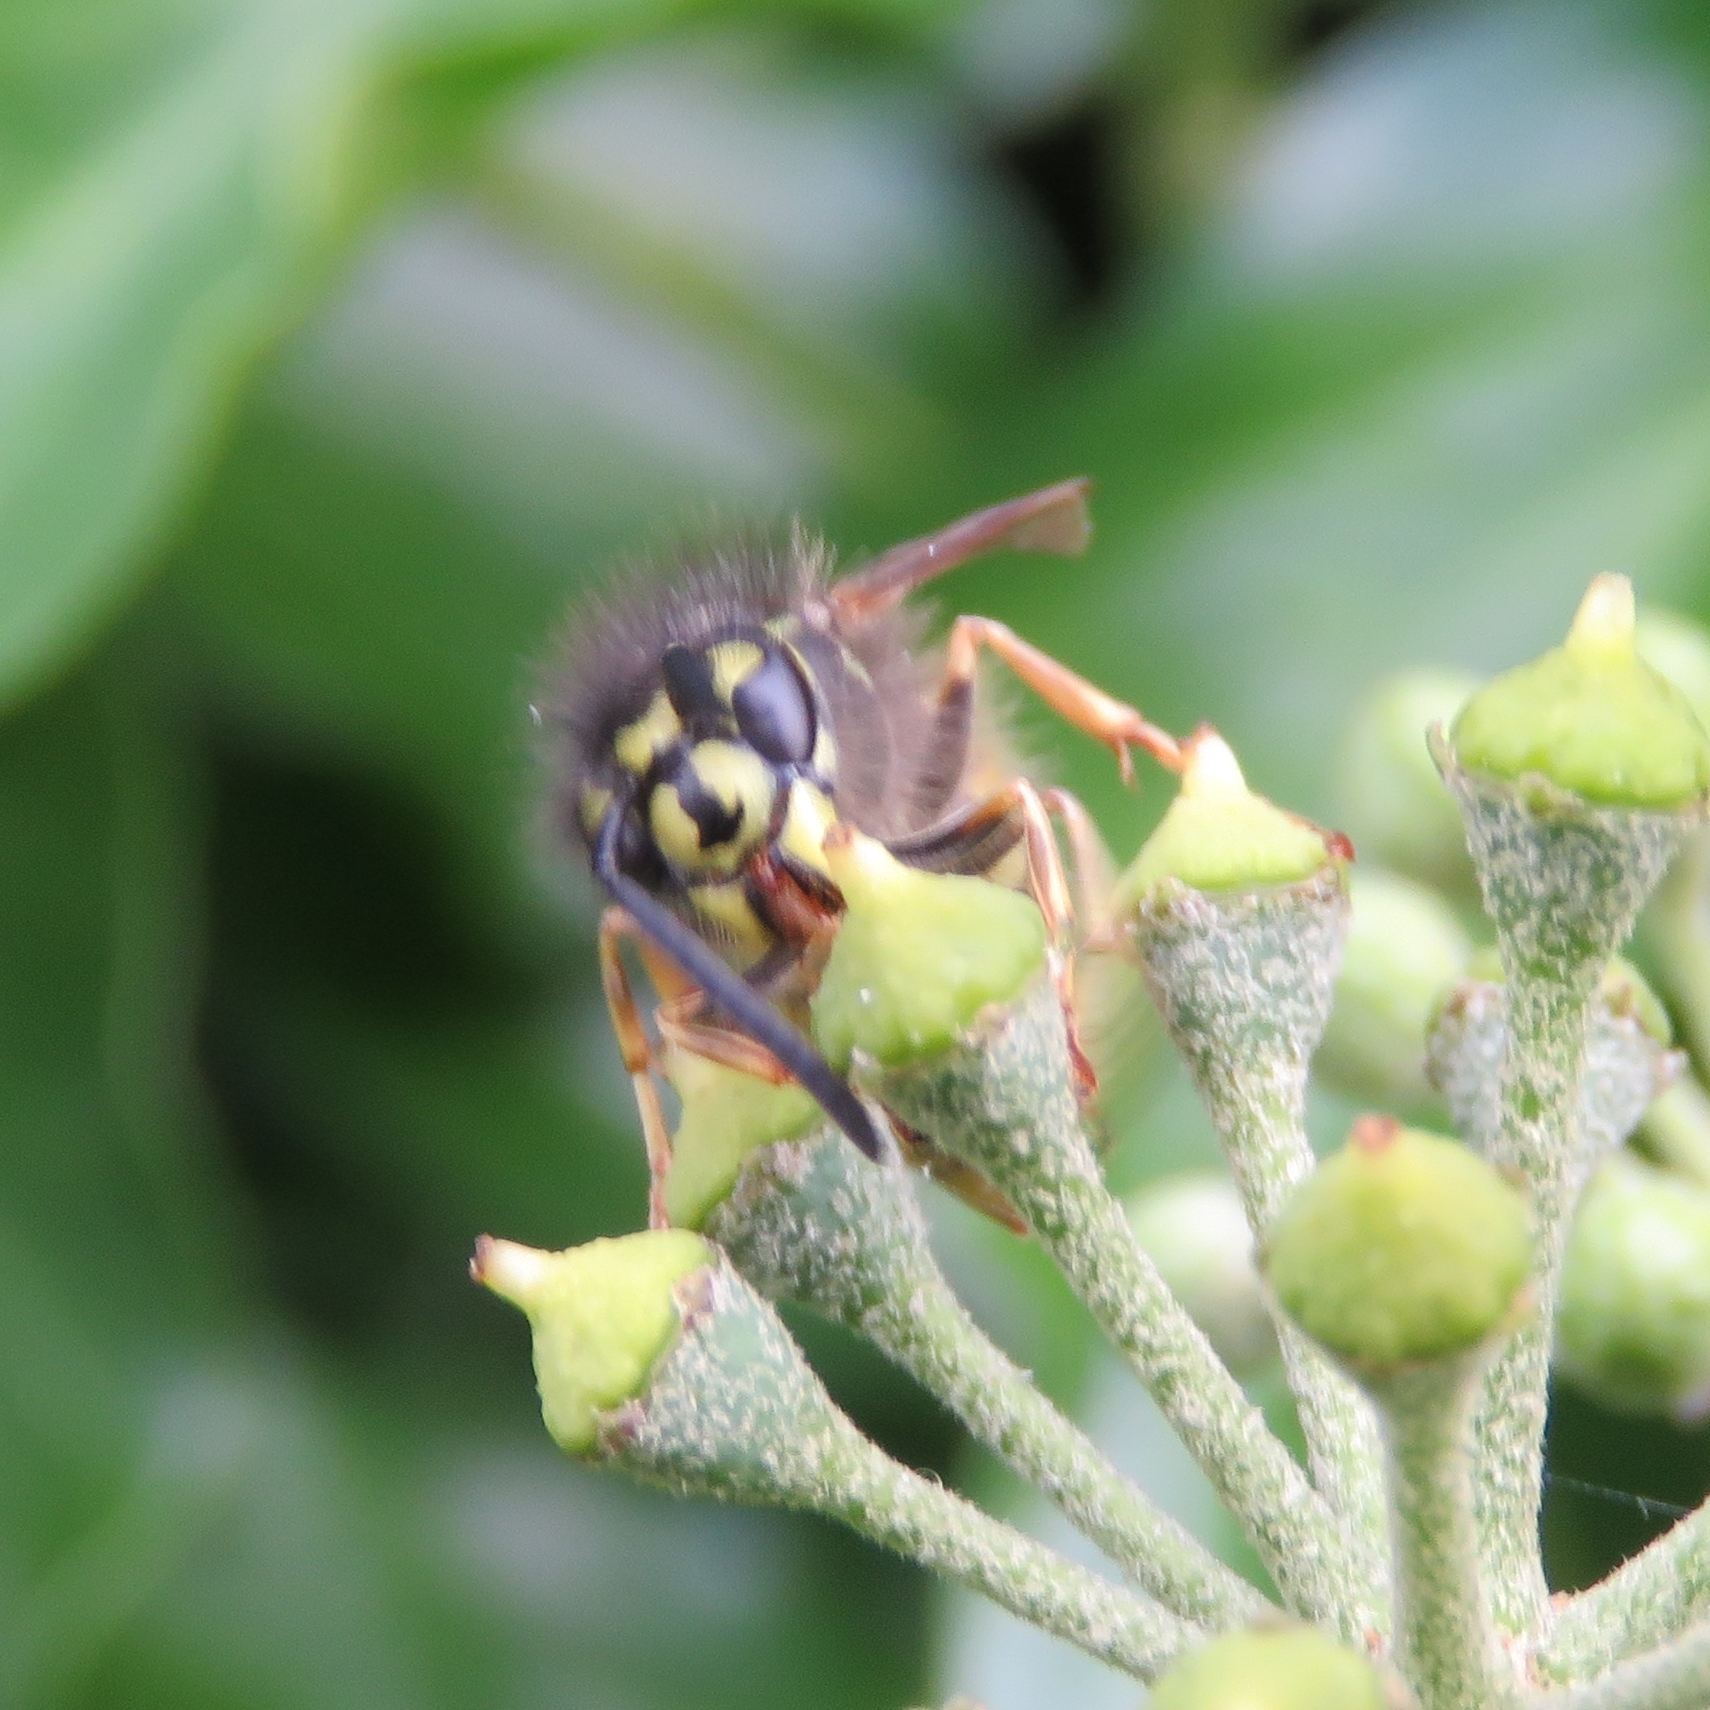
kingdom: Animalia
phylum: Arthropoda
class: Insecta
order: Hymenoptera
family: Vespidae
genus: Vespula
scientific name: Vespula vulgaris
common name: Common wasp
